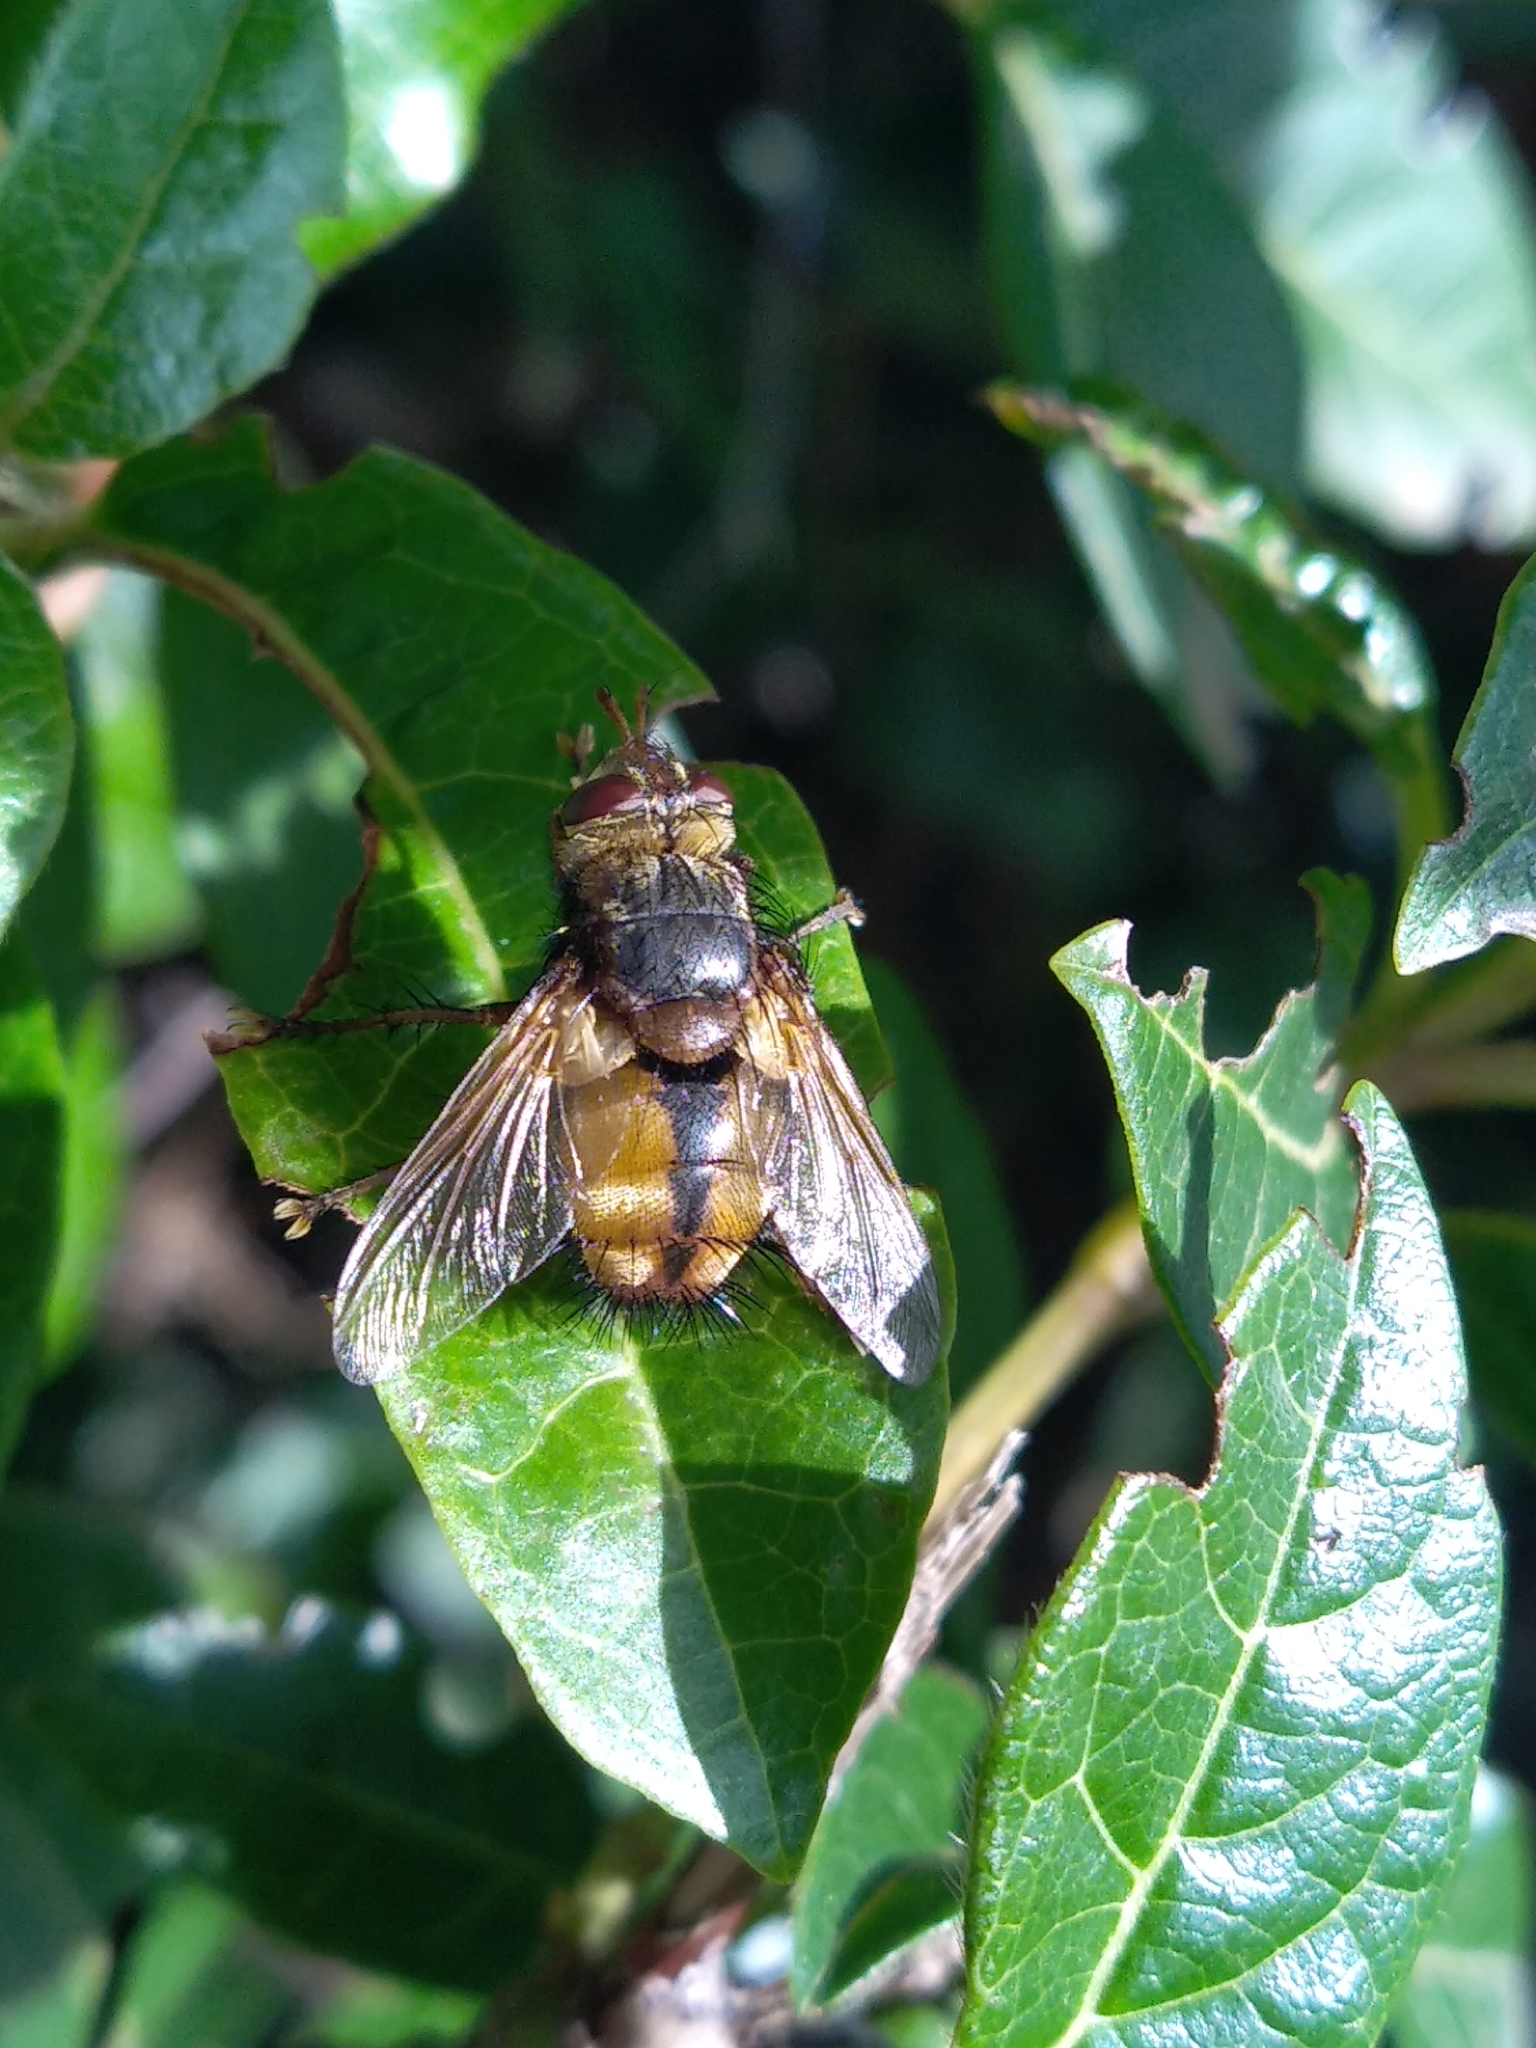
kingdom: Animalia
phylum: Arthropoda
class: Insecta
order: Diptera
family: Tachinidae
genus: Tachina
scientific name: Tachina fera
